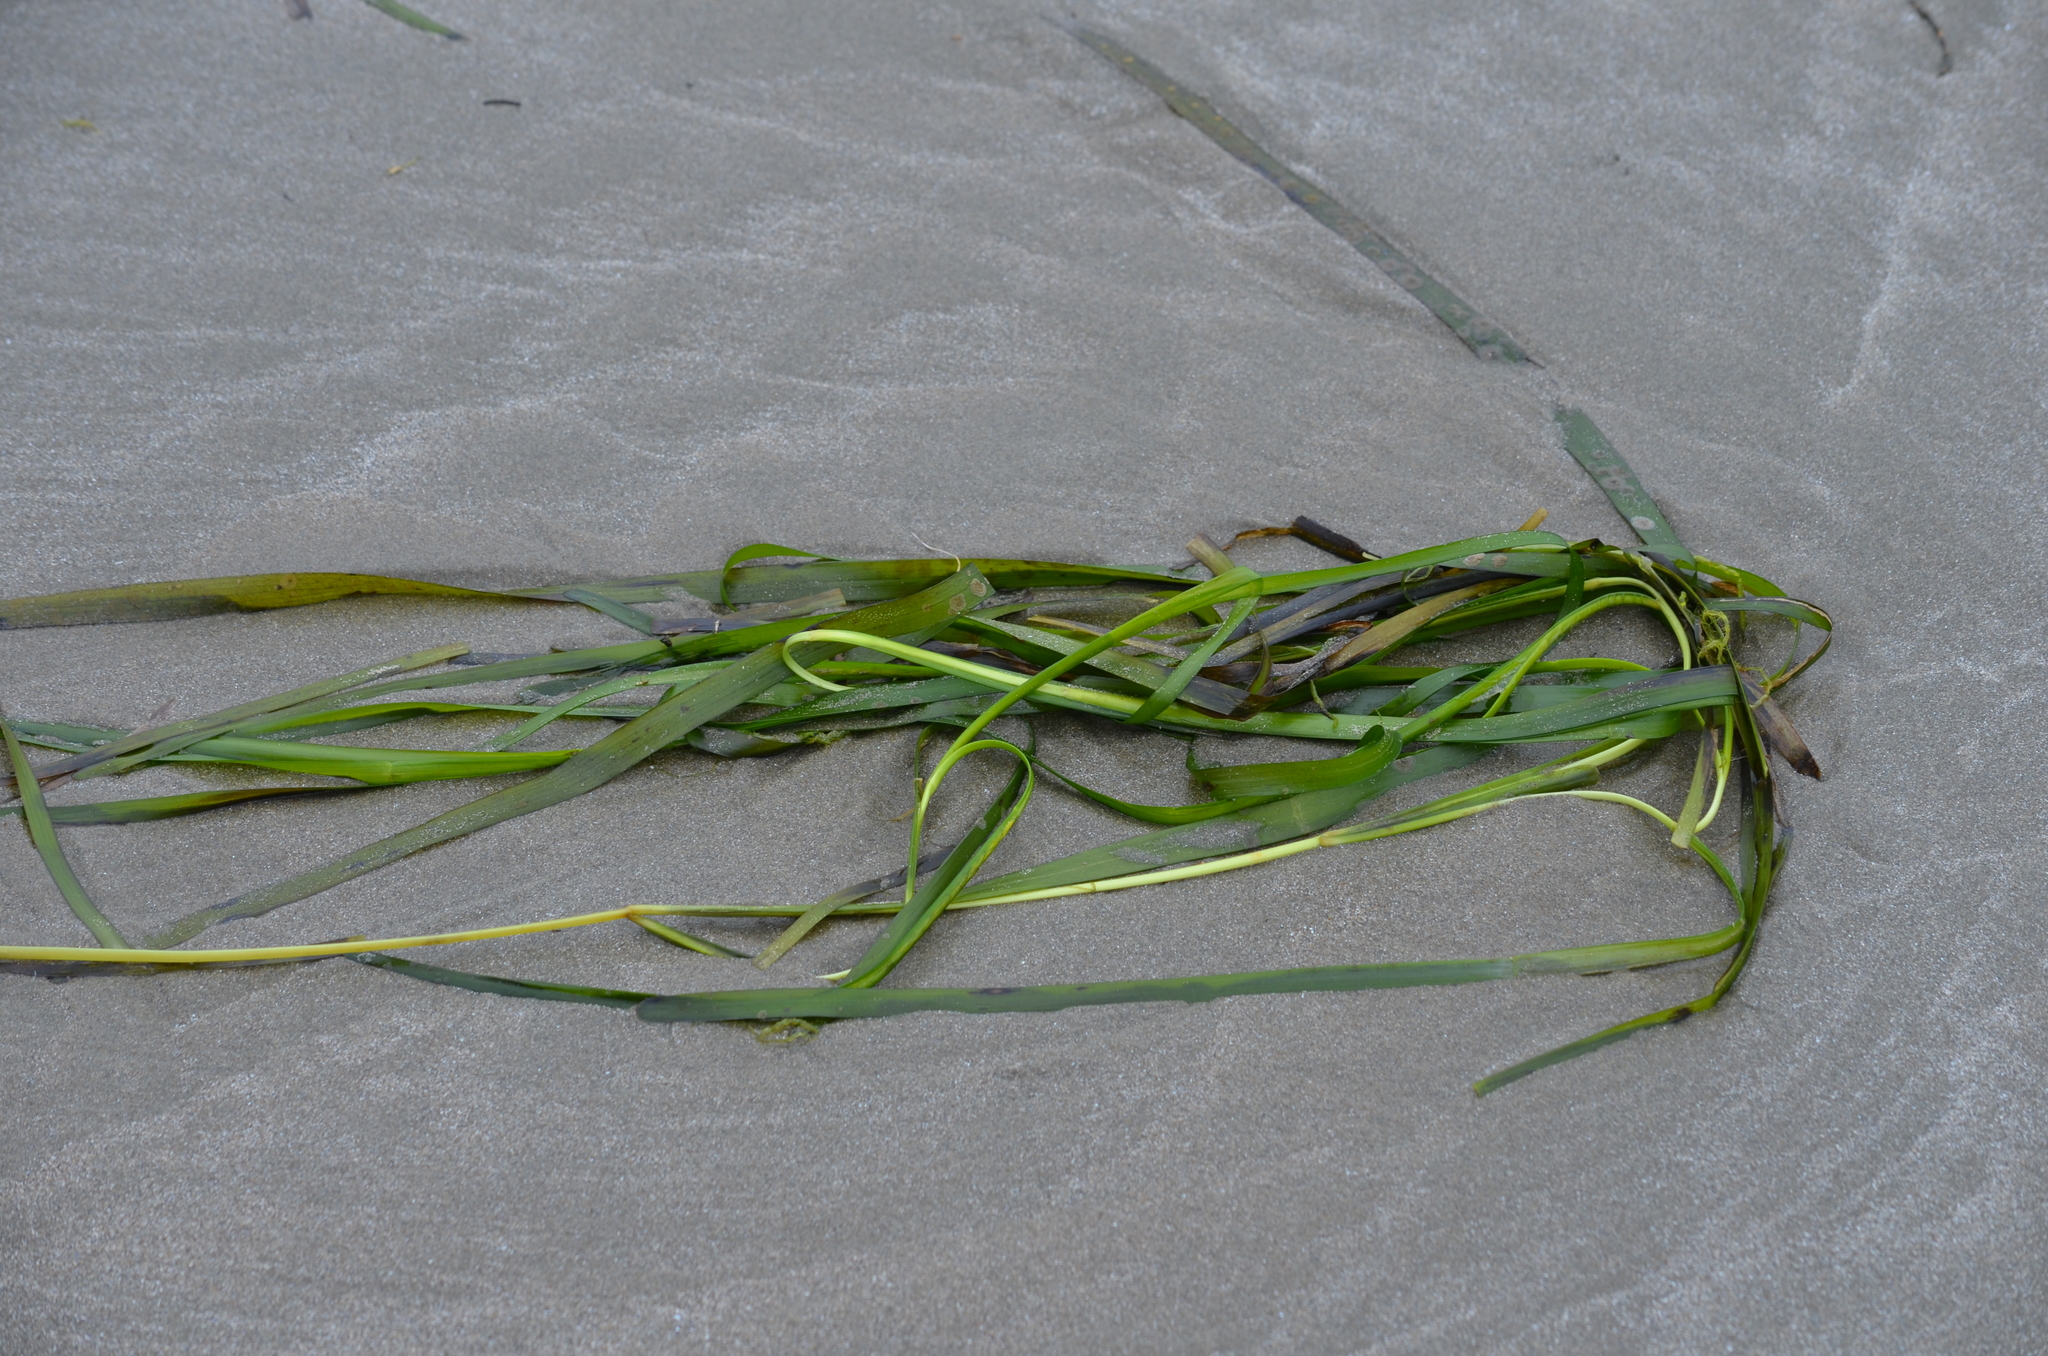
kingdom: Plantae
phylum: Tracheophyta
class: Liliopsida
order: Alismatales
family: Zosteraceae
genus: Zostera
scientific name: Zostera marina
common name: Eelgrass
